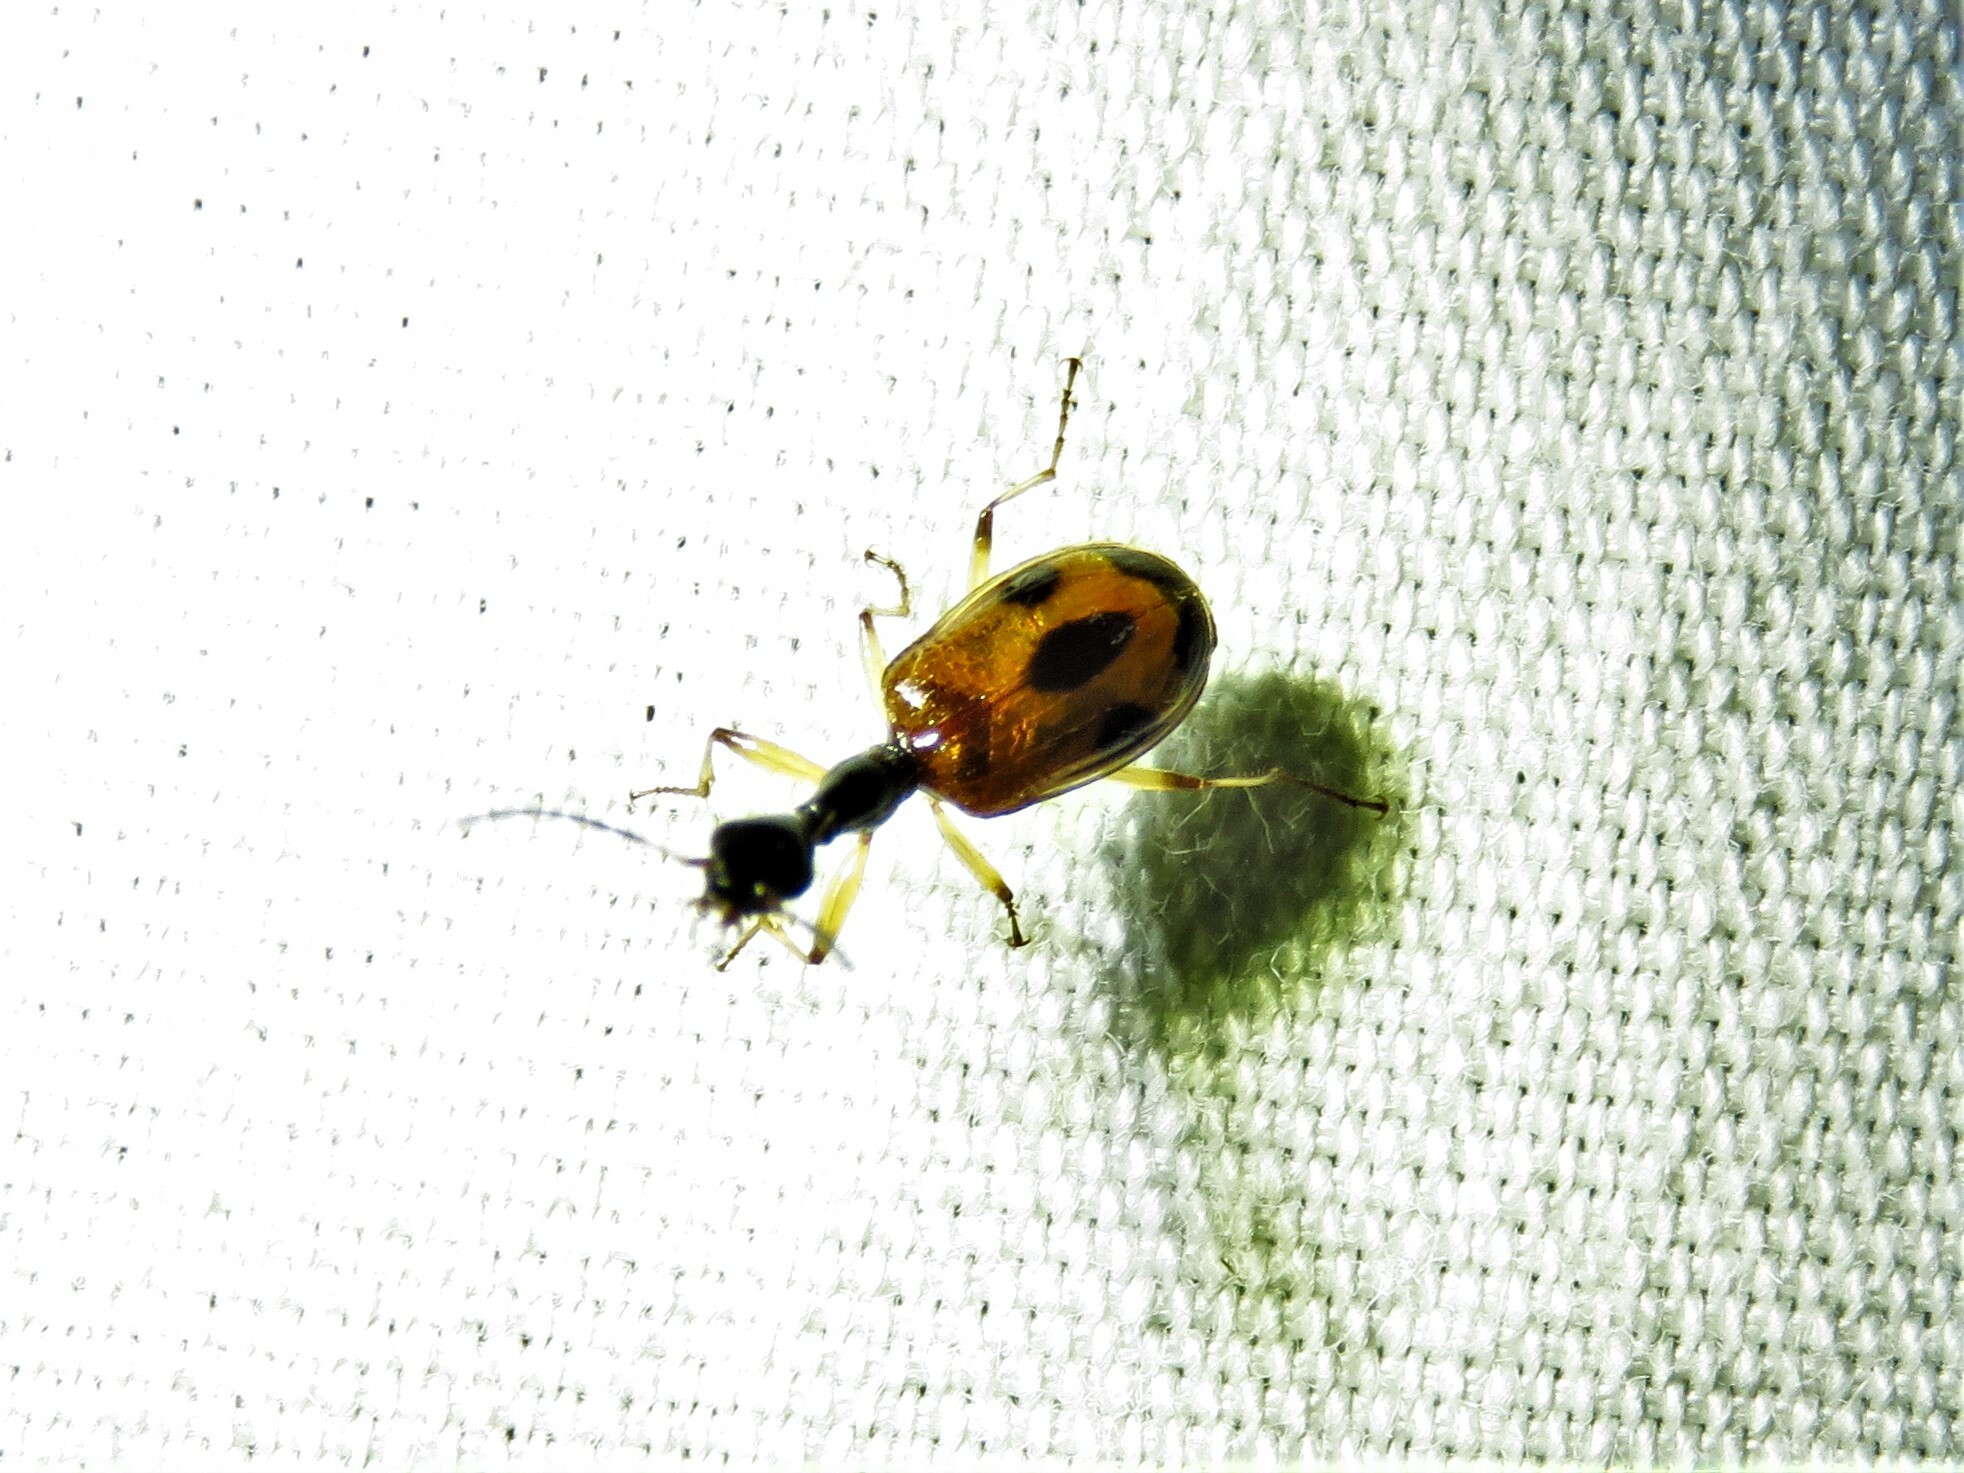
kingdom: Animalia
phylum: Arthropoda
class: Insecta
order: Coleoptera
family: Carabidae
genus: Colliuris
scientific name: Colliuris pensylvanica
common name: Long-necked ground beetle
